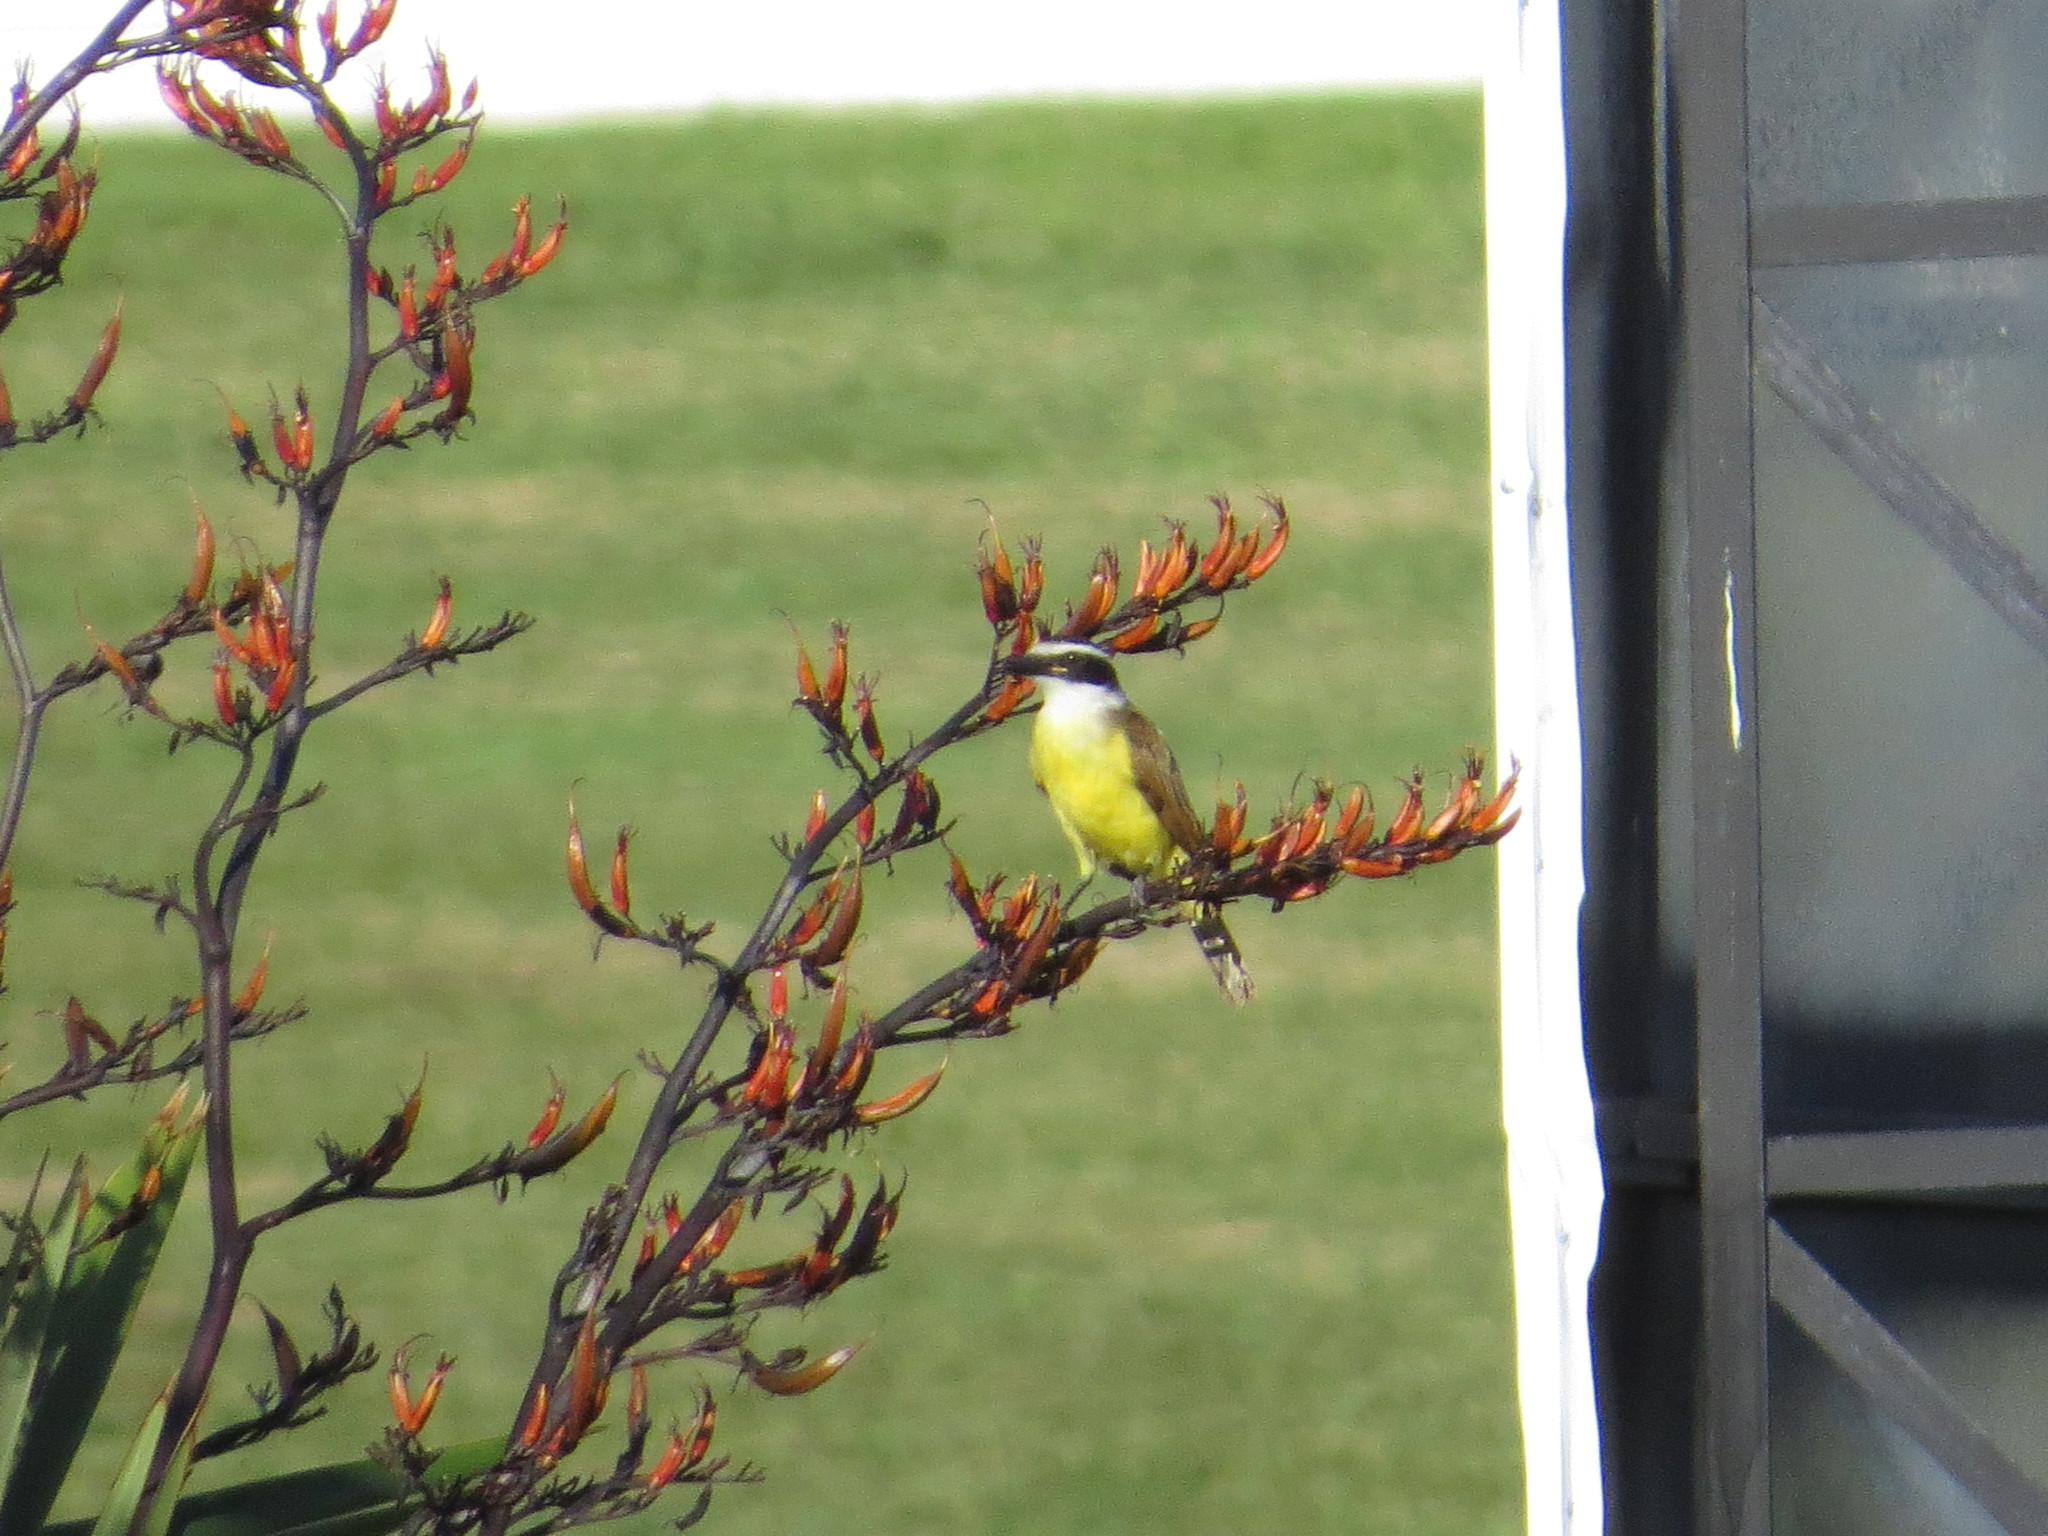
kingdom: Animalia
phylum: Chordata
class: Aves
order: Passeriformes
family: Tyrannidae
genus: Pitangus
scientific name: Pitangus sulphuratus
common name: Great kiskadee
